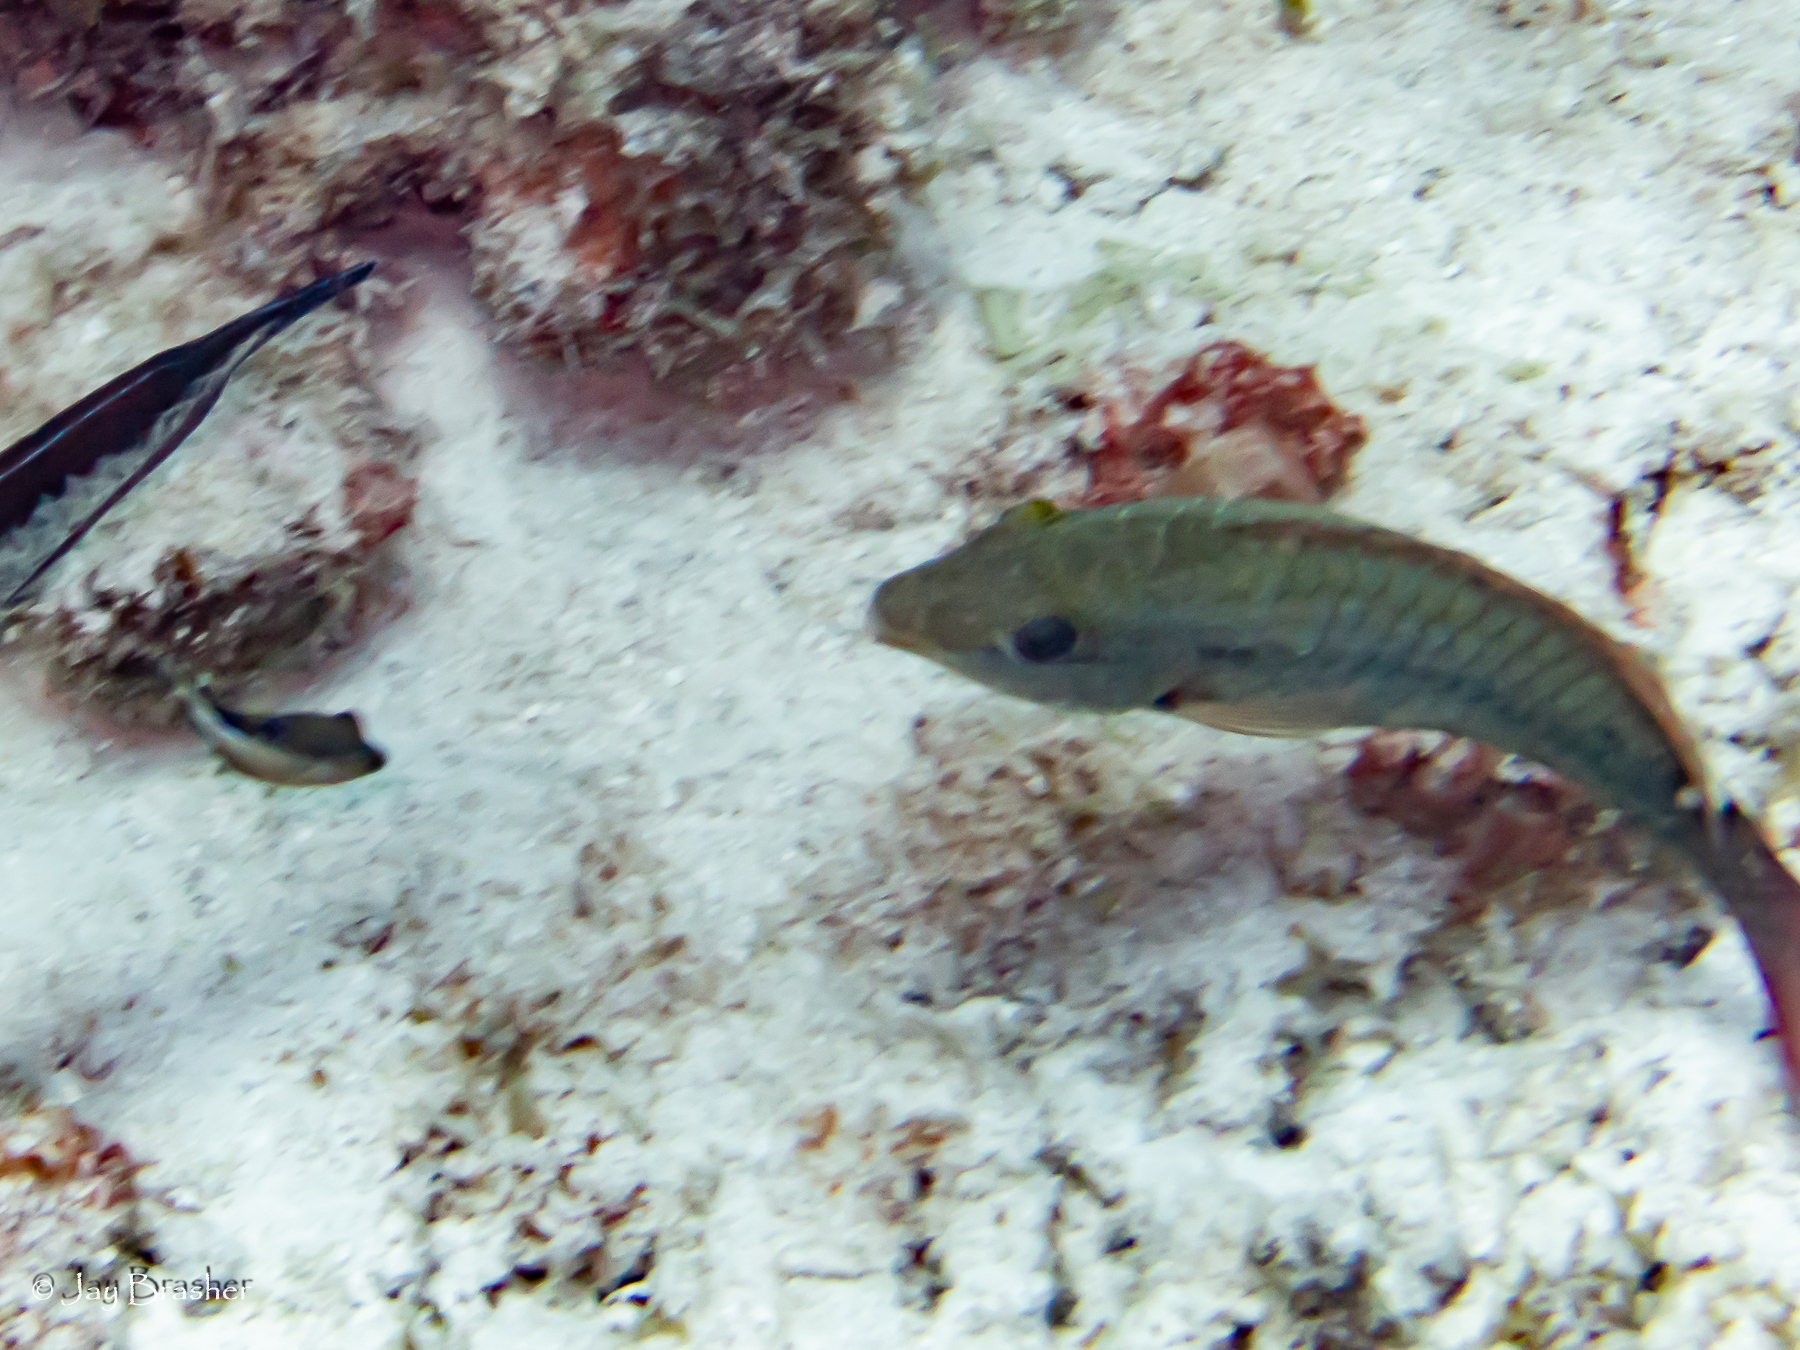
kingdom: Animalia
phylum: Chordata
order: Perciformes
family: Scaridae
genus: Sparisoma
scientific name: Sparisoma aurofrenatum
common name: Redband parrotfish
